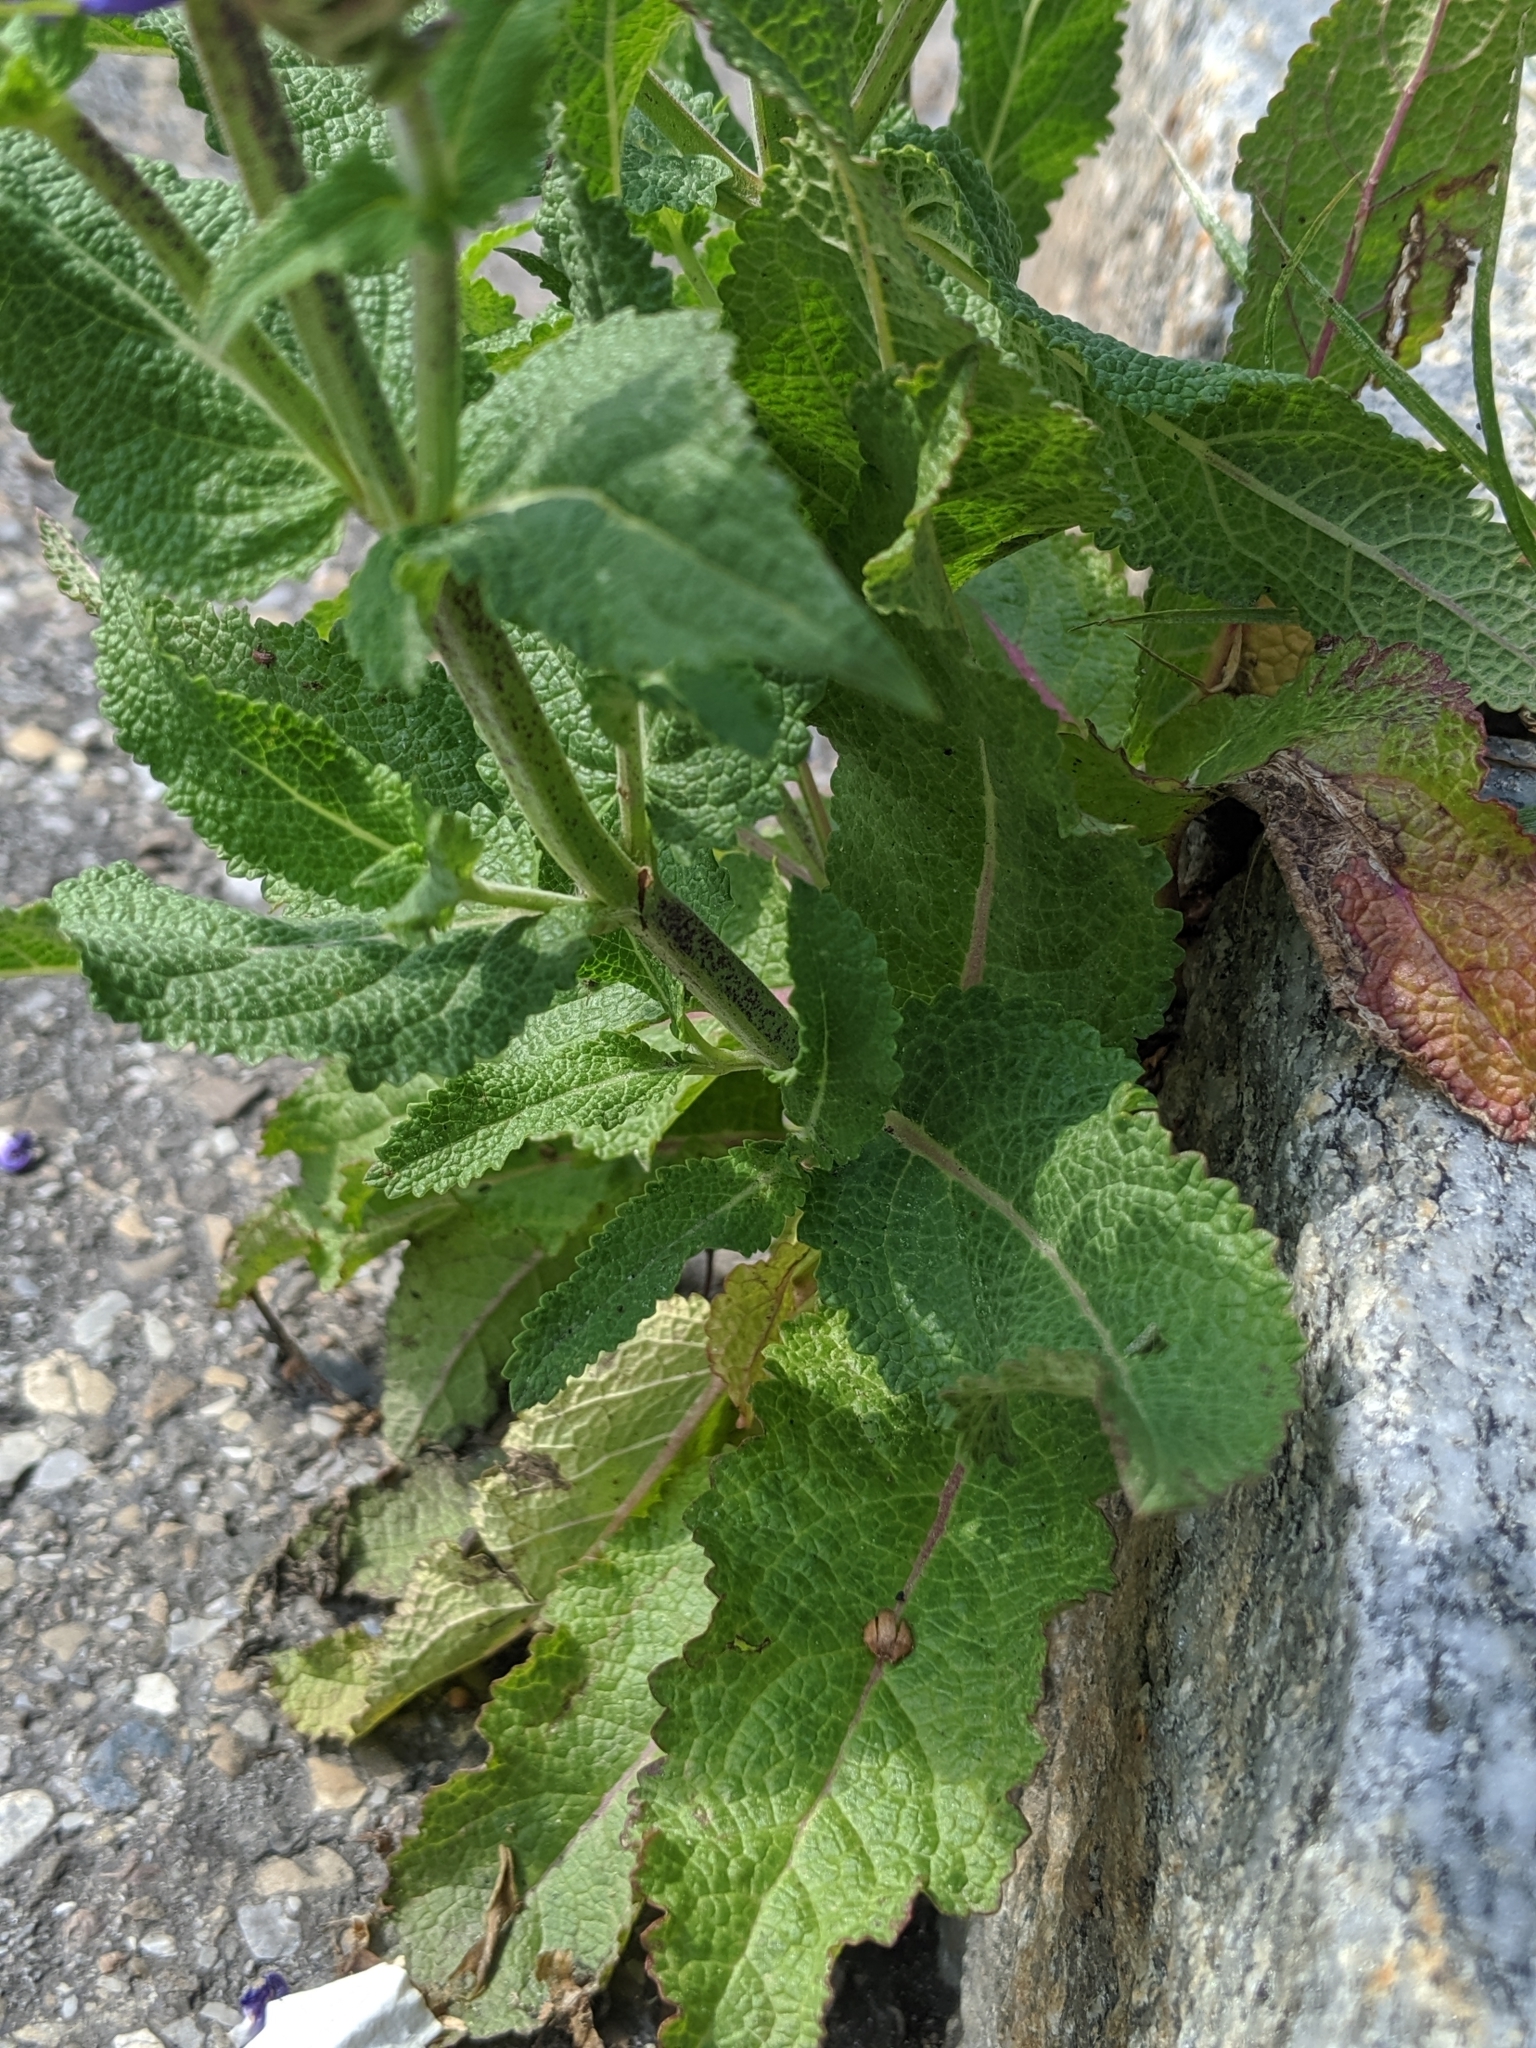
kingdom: Plantae
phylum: Tracheophyta
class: Magnoliopsida
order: Lamiales
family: Lamiaceae
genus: Salvia
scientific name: Salvia pratensis
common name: Meadow sage
